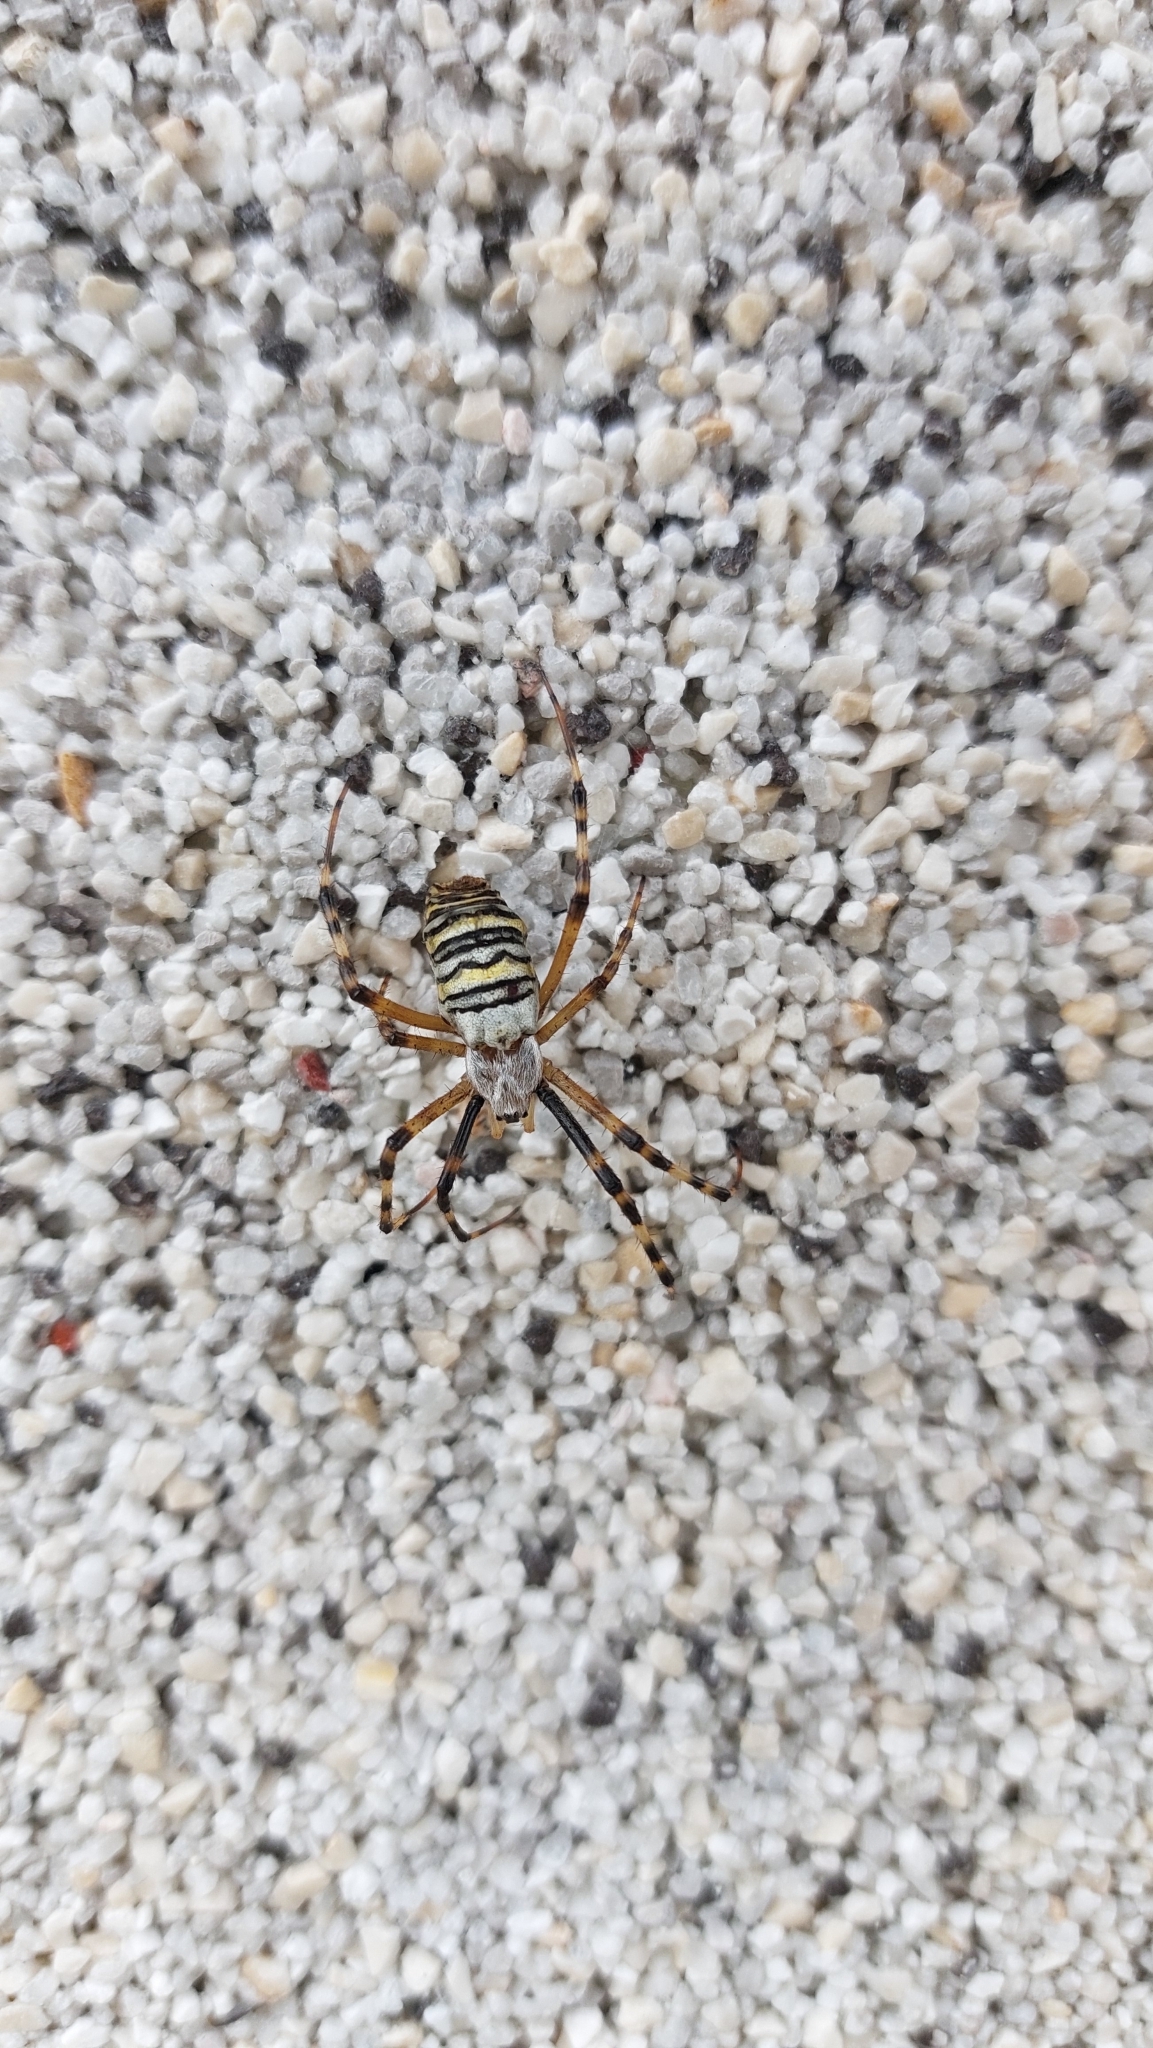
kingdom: Animalia
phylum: Arthropoda
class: Arachnida
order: Araneae
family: Araneidae
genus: Argiope
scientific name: Argiope bruennichi
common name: Wasp spider
